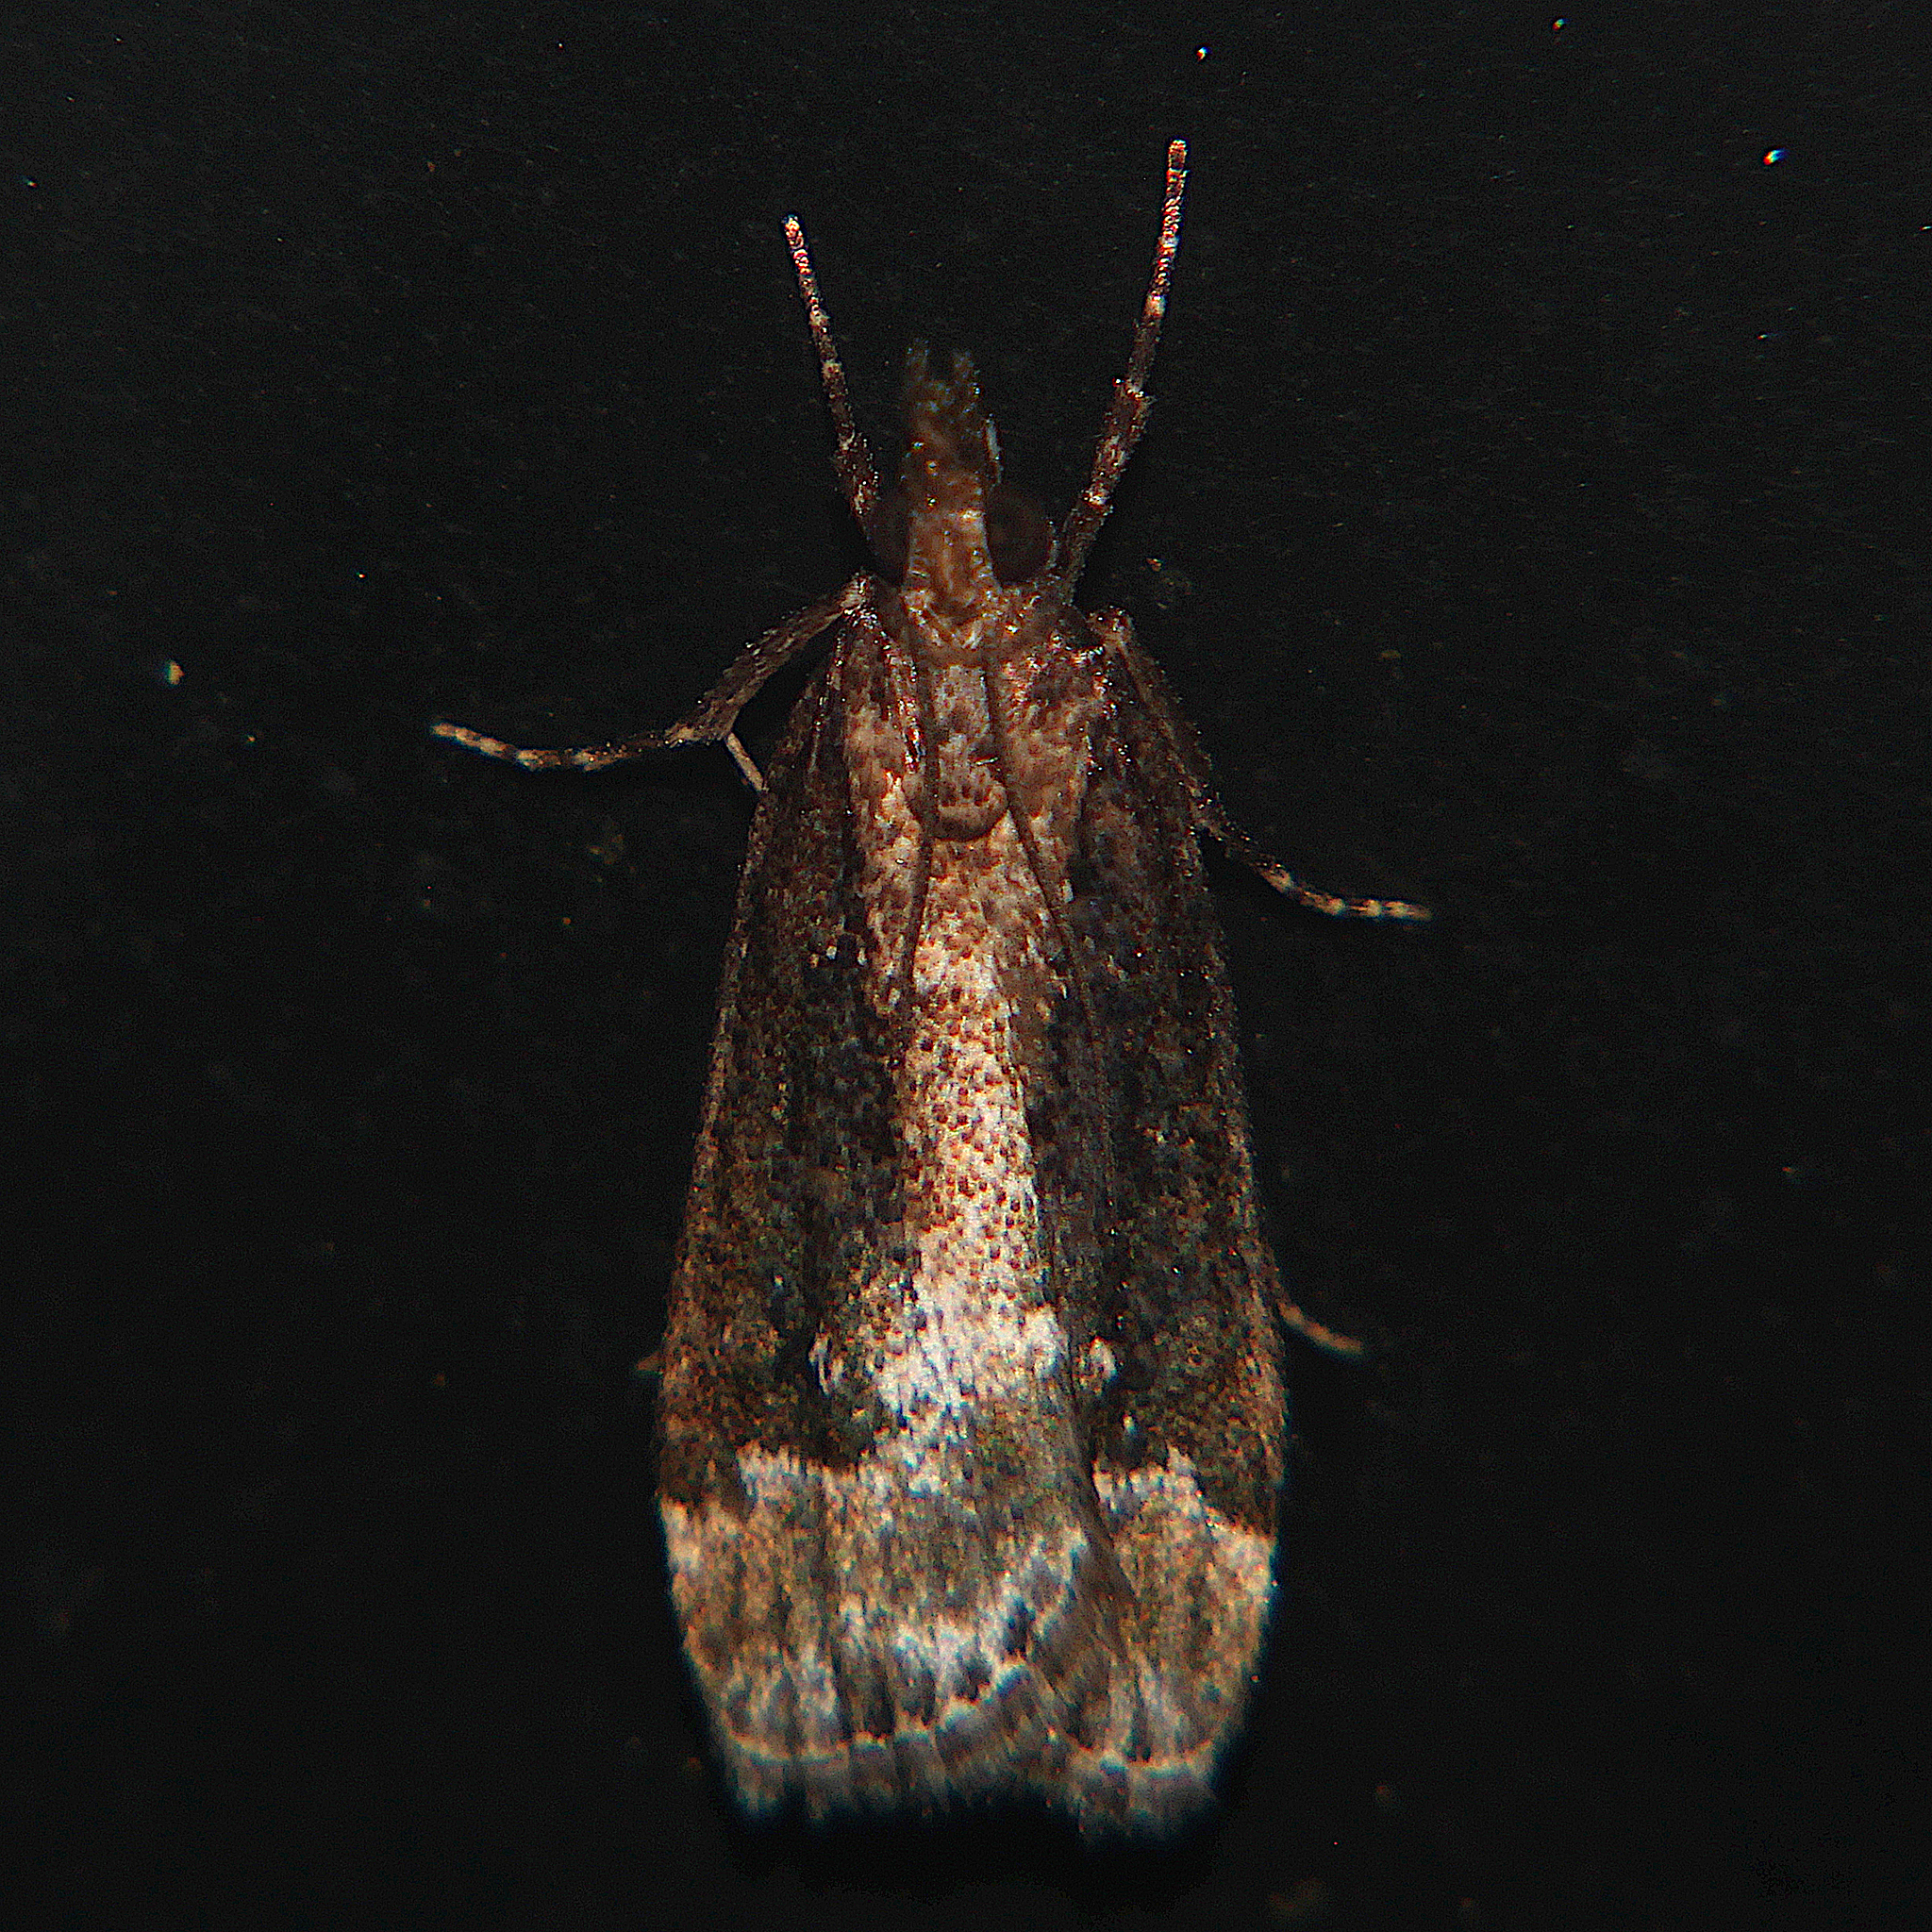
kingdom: Animalia
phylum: Arthropoda
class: Insecta
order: Lepidoptera
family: Crambidae
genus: Eudonia
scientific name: Eudonia dochmia
